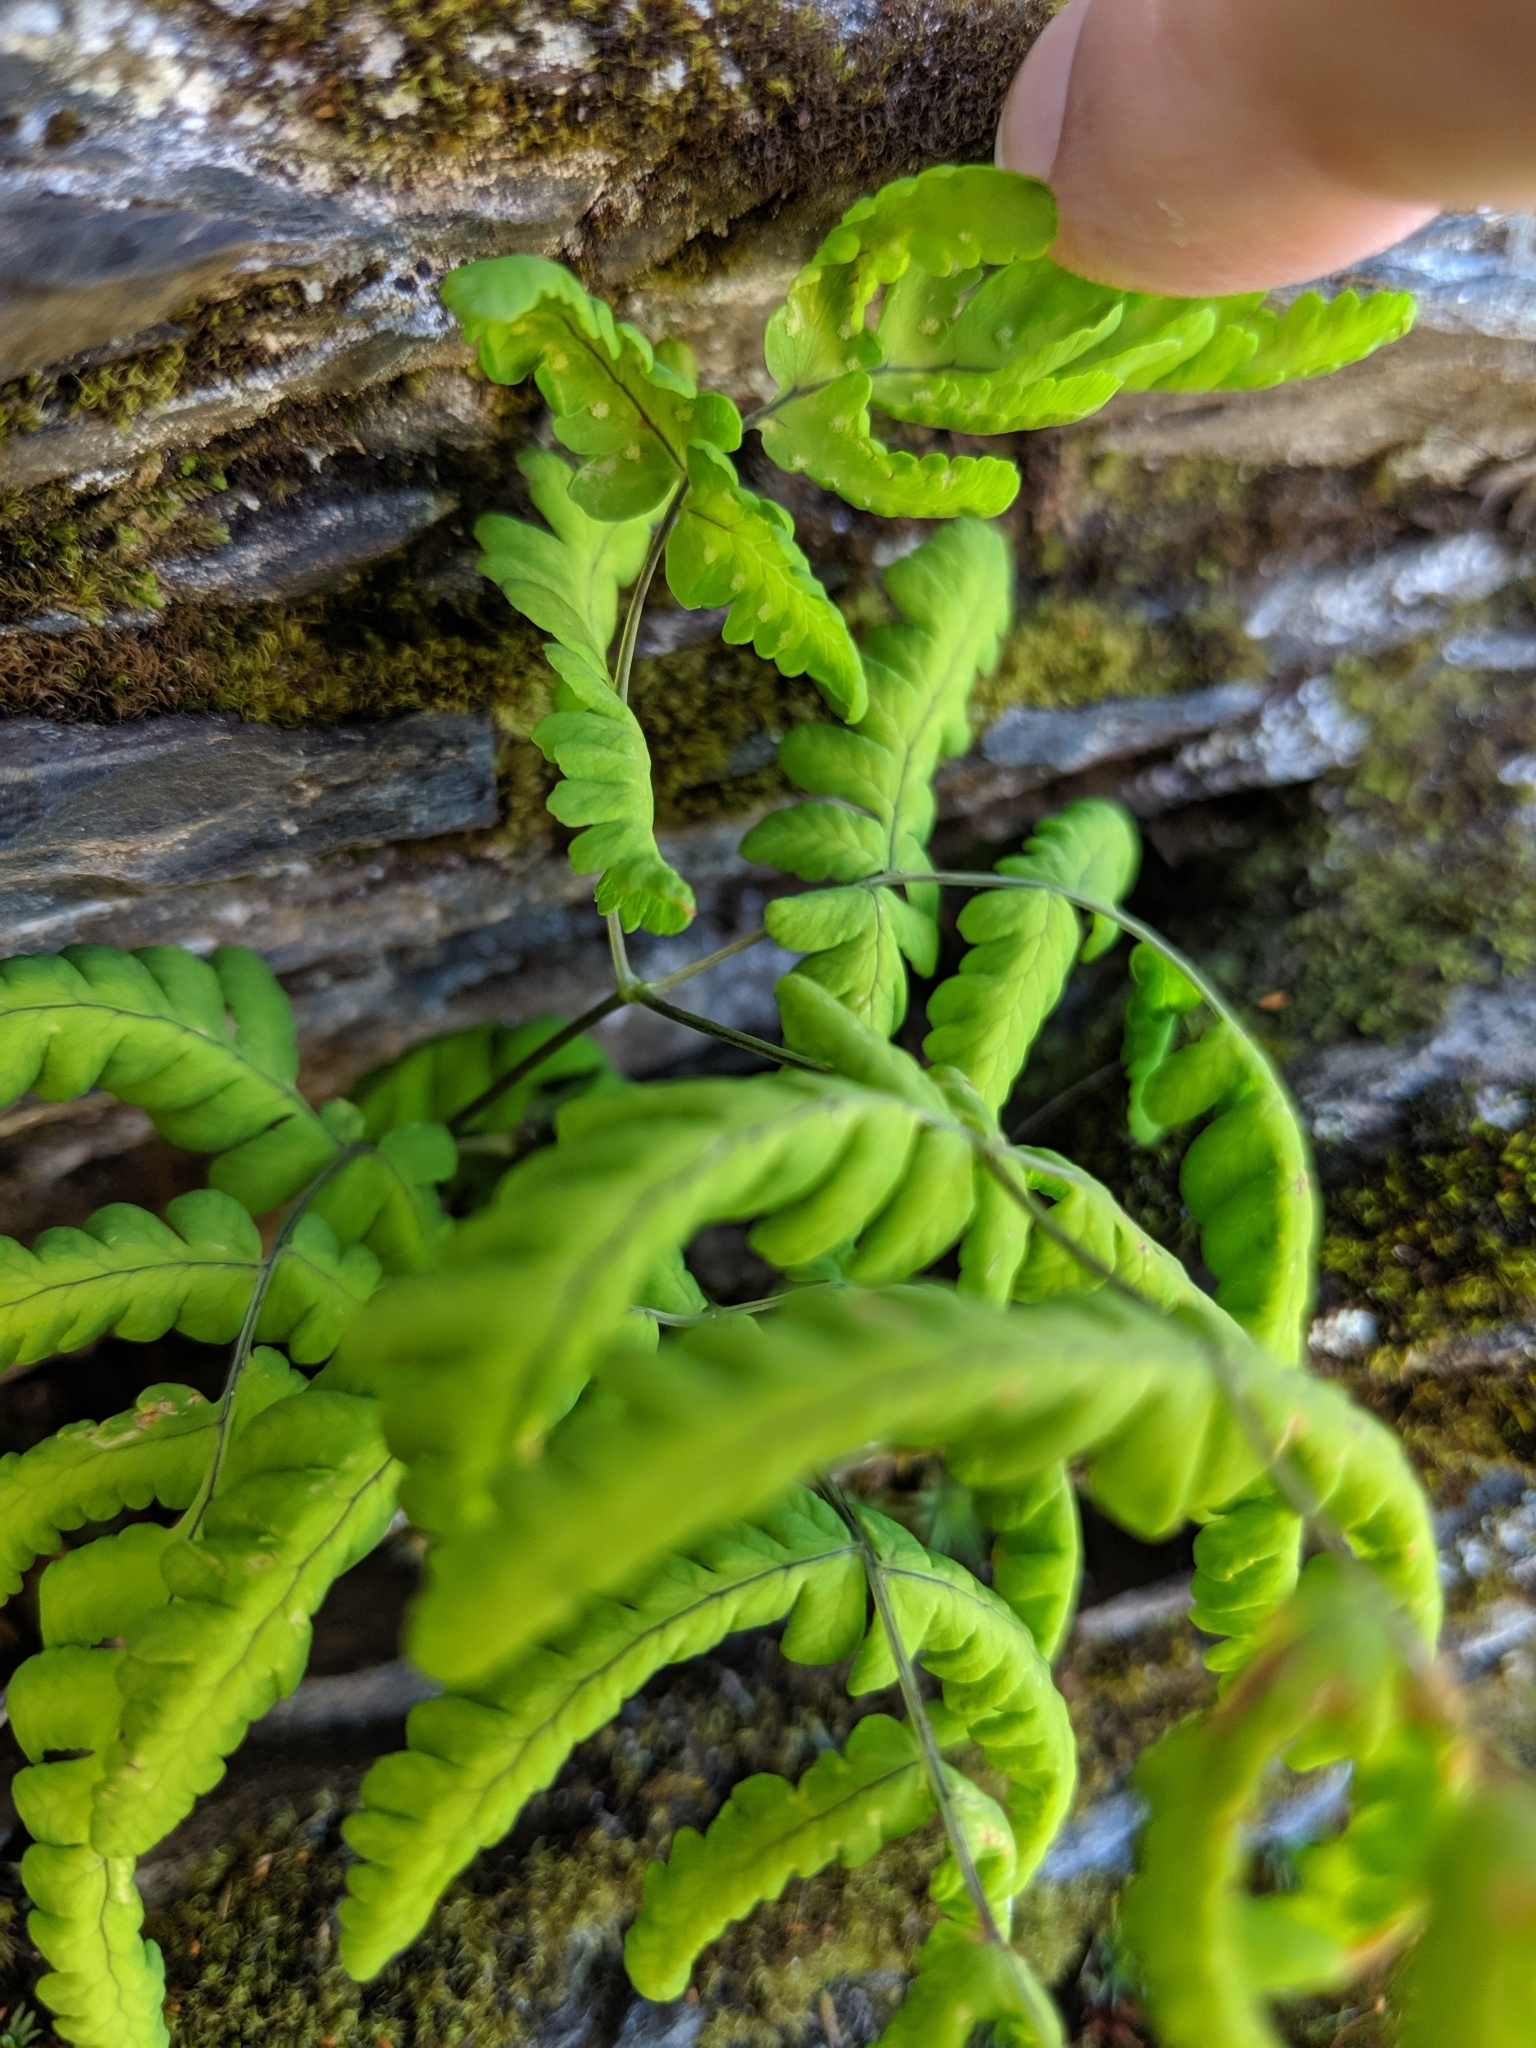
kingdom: Plantae
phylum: Tracheophyta
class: Polypodiopsida
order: Polypodiales
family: Cystopteridaceae
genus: Gymnocarpium
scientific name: Gymnocarpium dryopteris
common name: Oak fern
